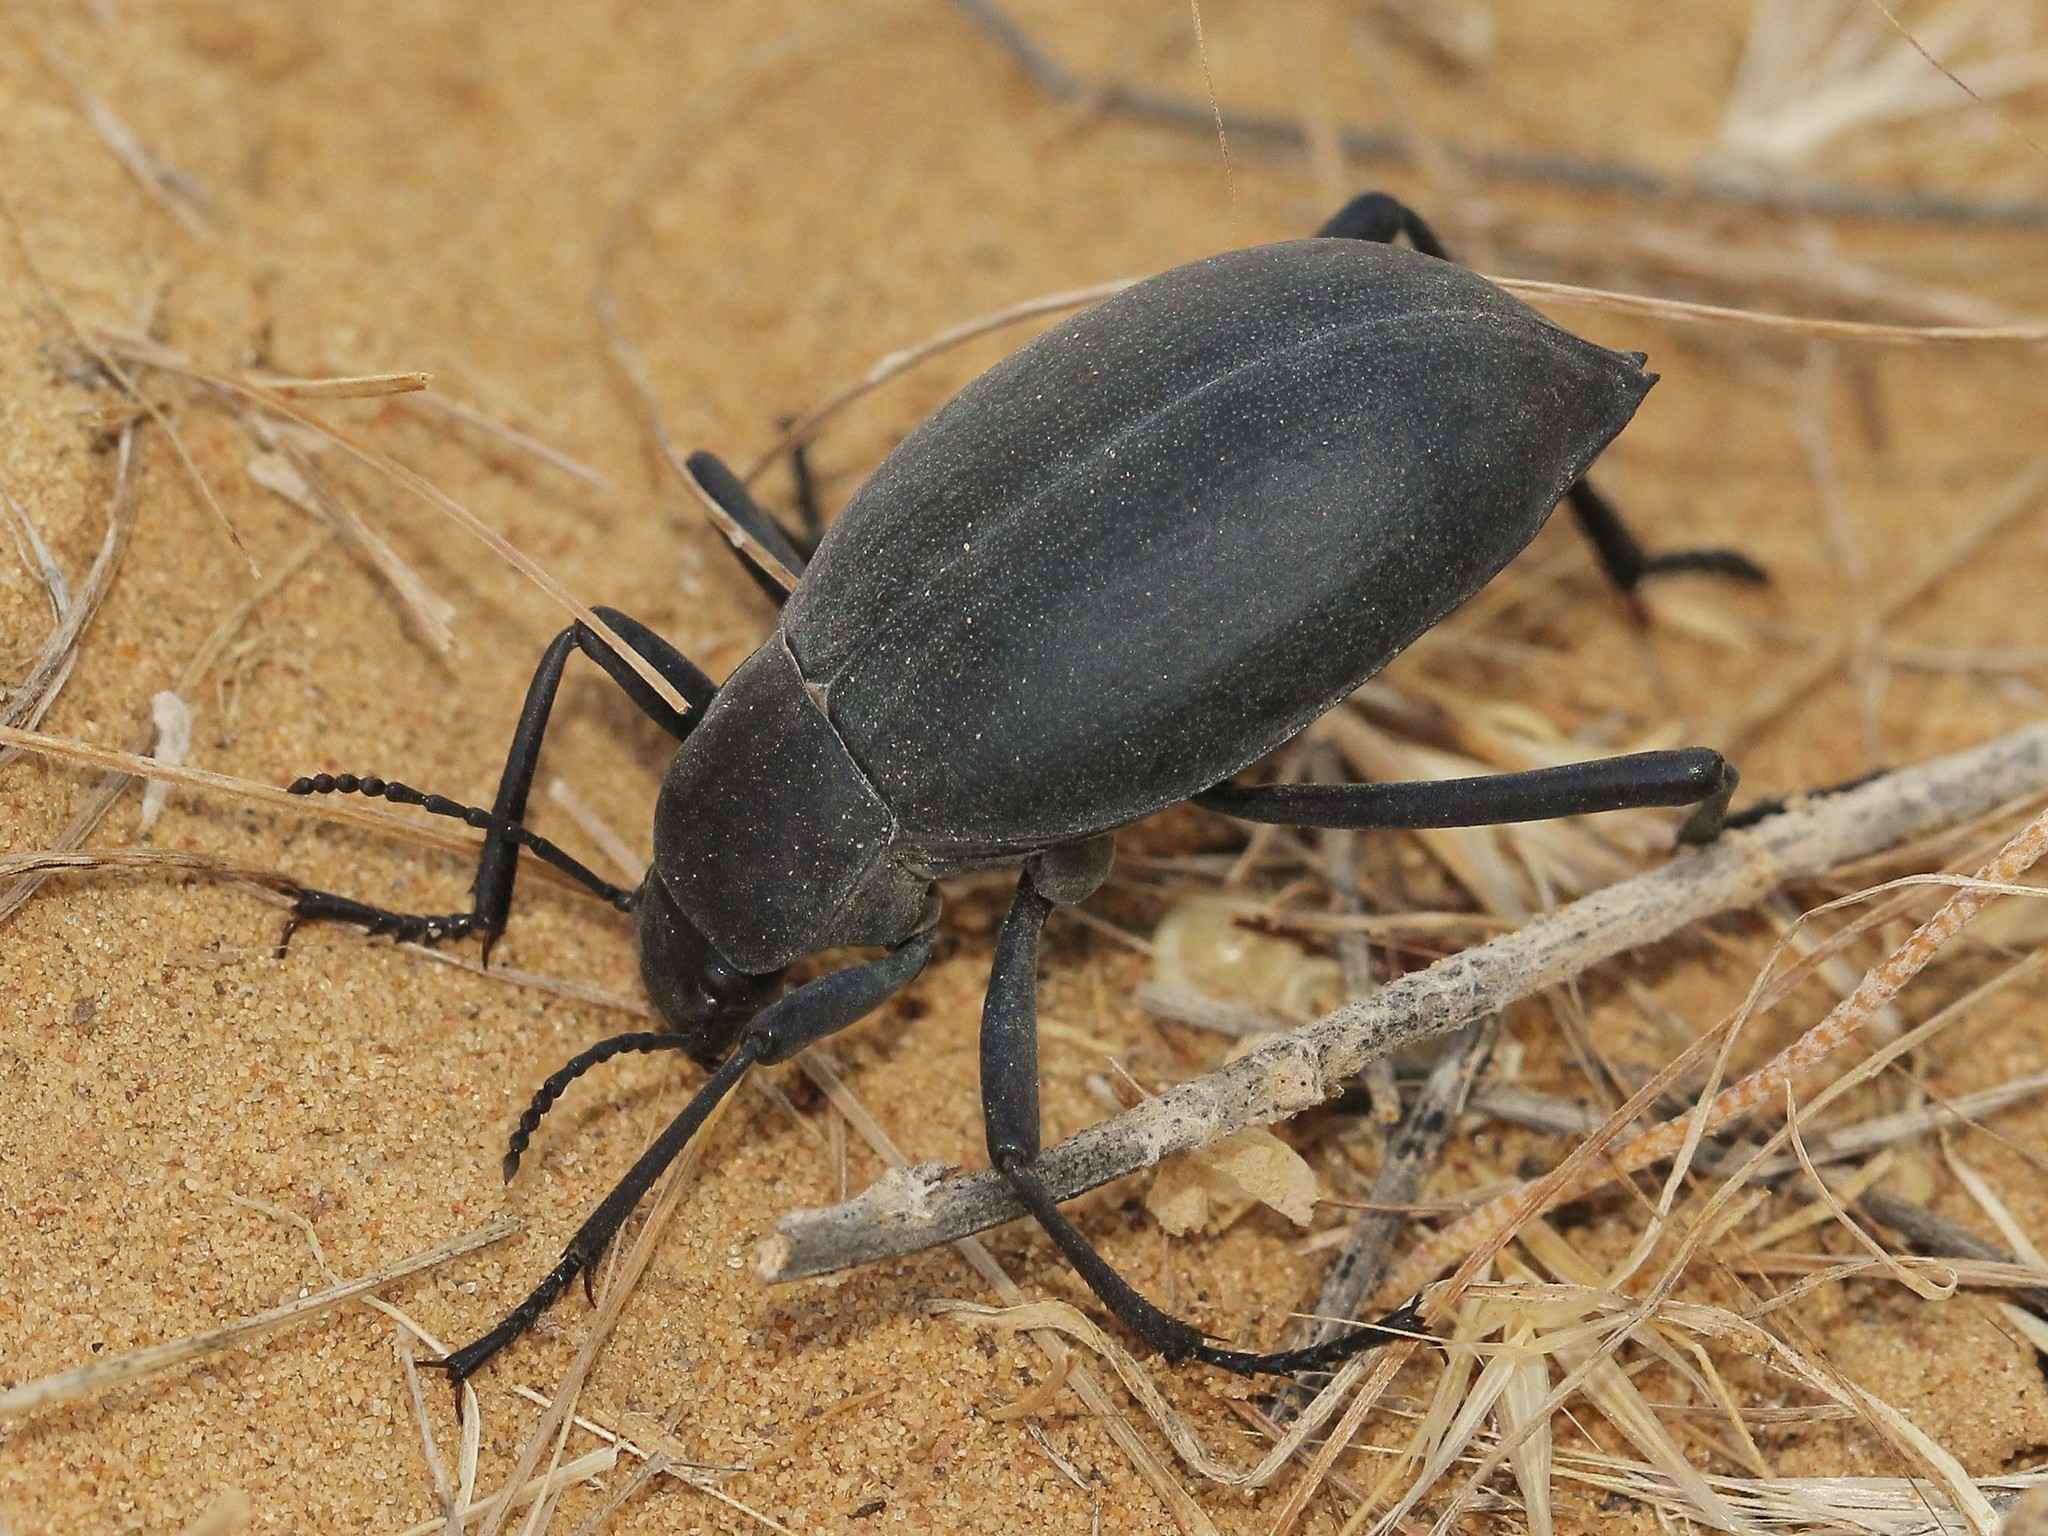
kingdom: Animalia
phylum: Arthropoda
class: Insecta
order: Coleoptera
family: Tenebrionidae
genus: Blaps
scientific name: Blaps pruinosa
